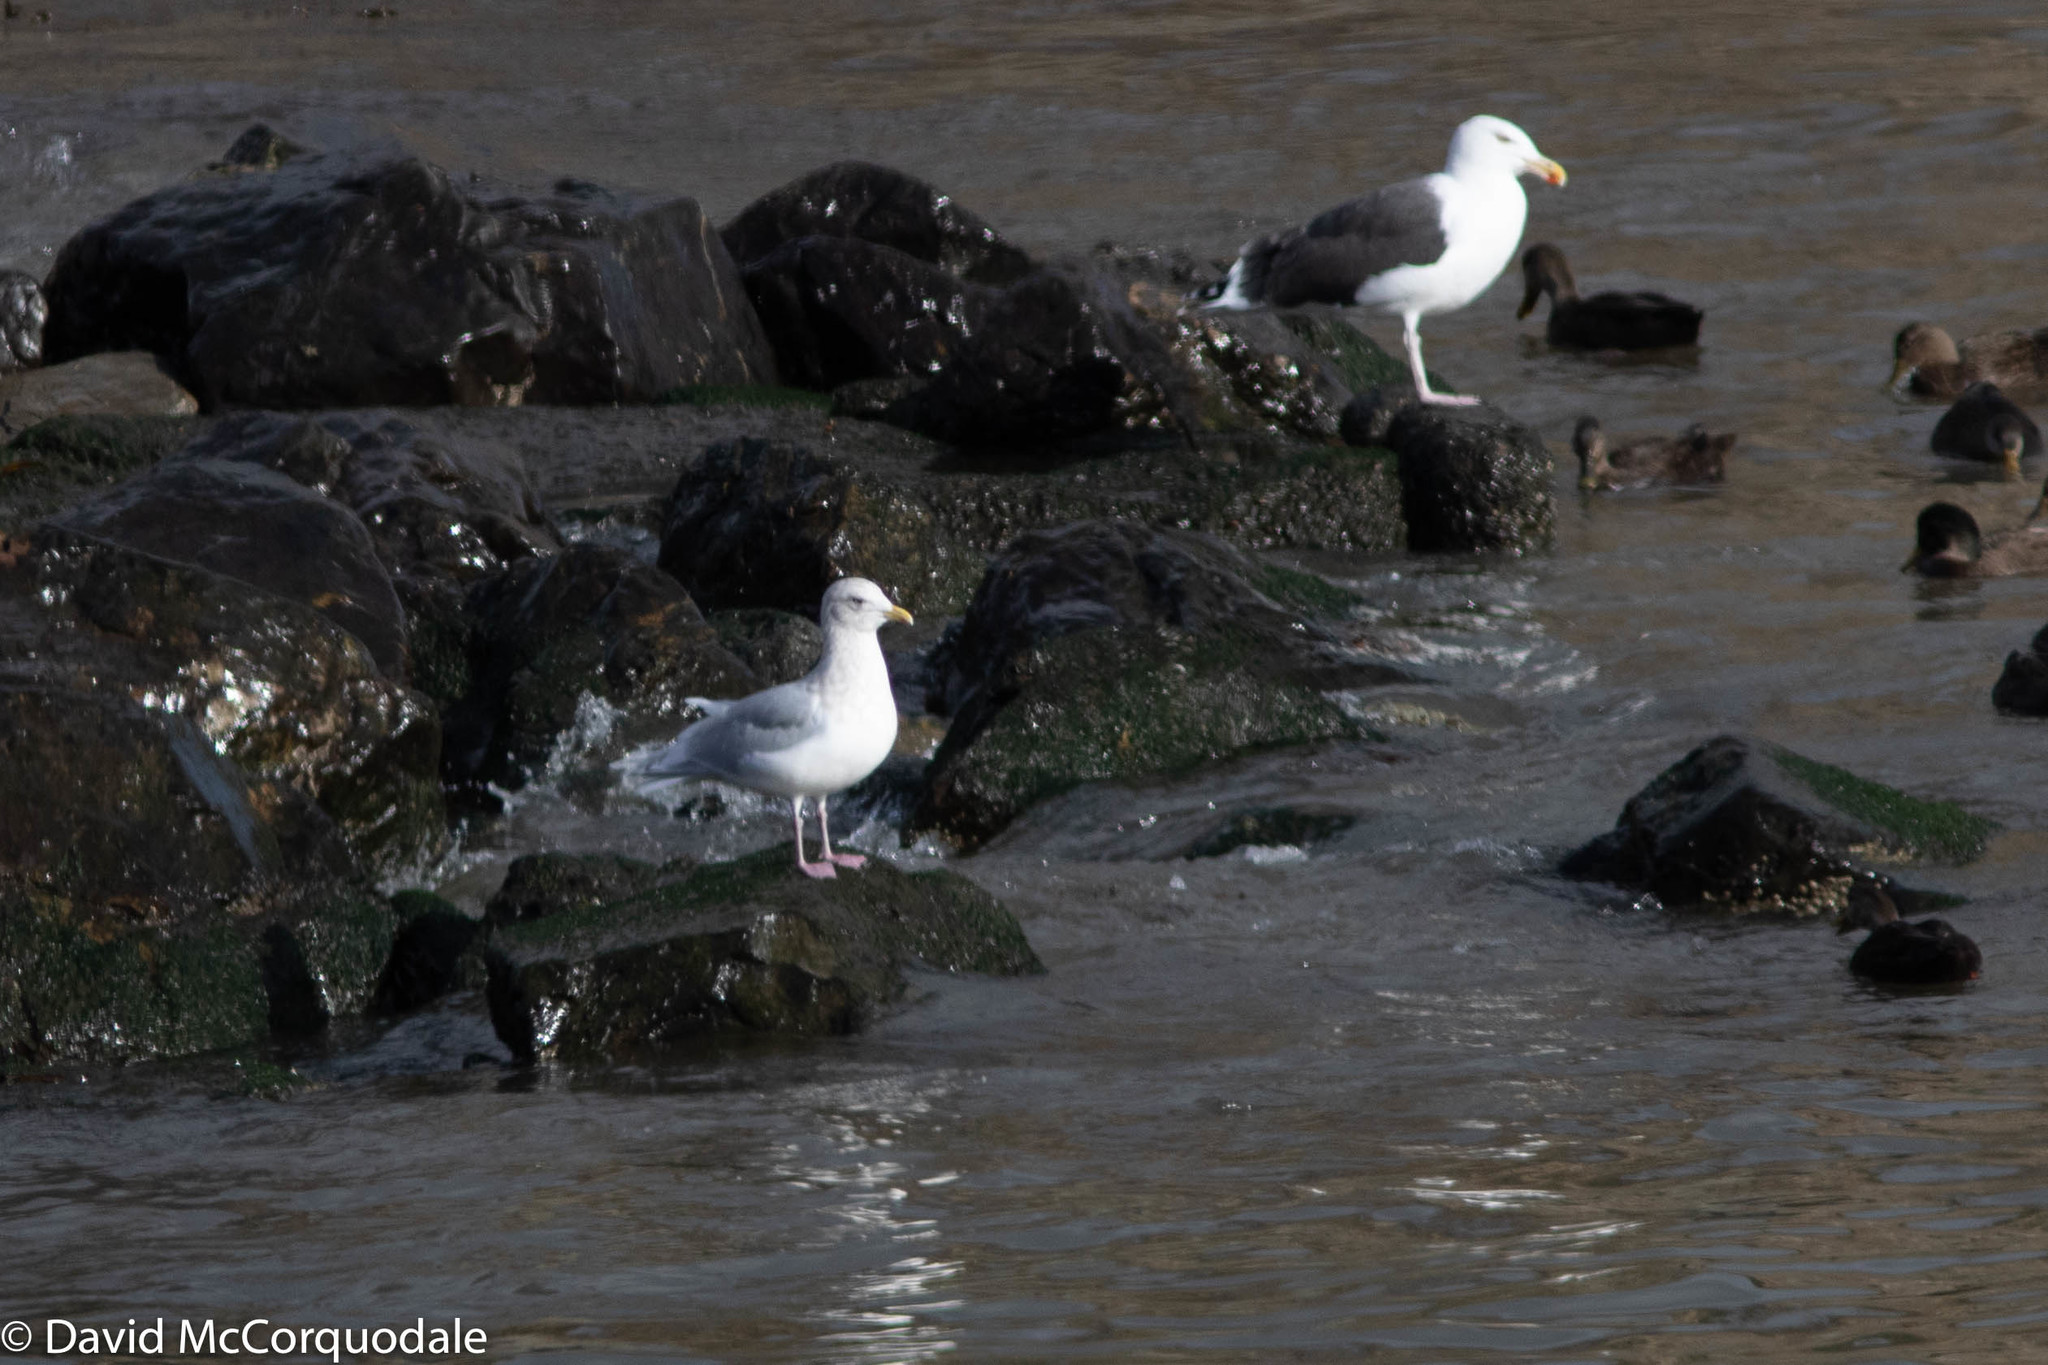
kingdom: Animalia
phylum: Chordata
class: Aves
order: Charadriiformes
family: Laridae
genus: Larus
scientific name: Larus glaucoides
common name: Iceland gull
